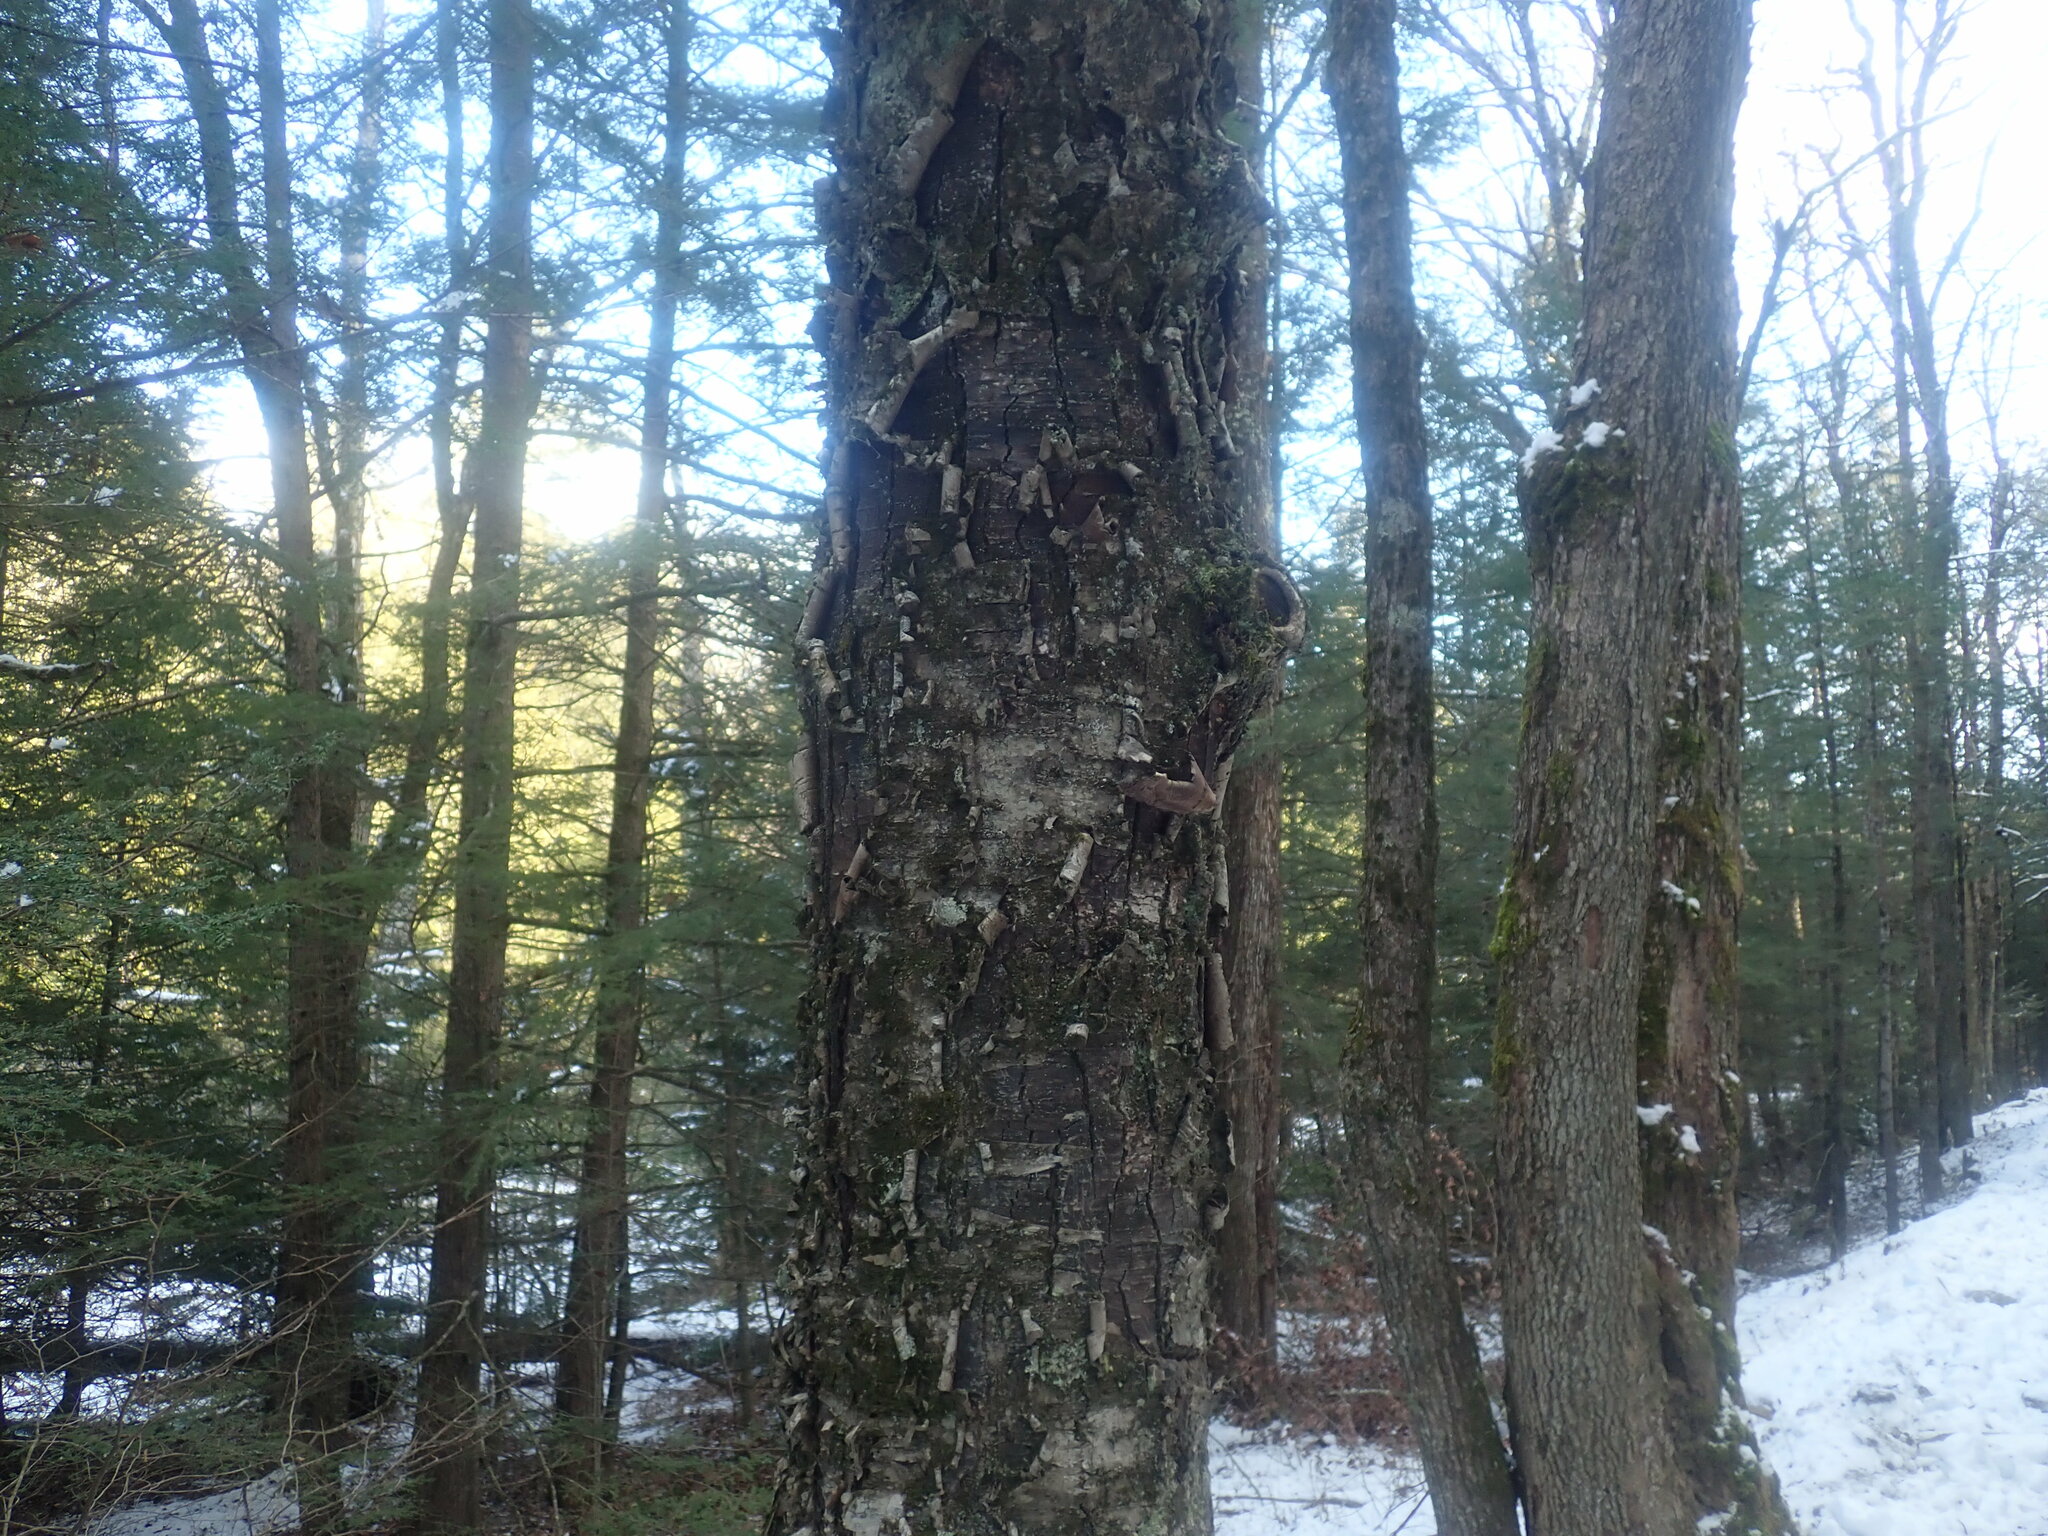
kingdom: Plantae
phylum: Tracheophyta
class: Magnoliopsida
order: Fagales
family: Betulaceae
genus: Betula
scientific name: Betula alleghaniensis
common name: Yellow birch
